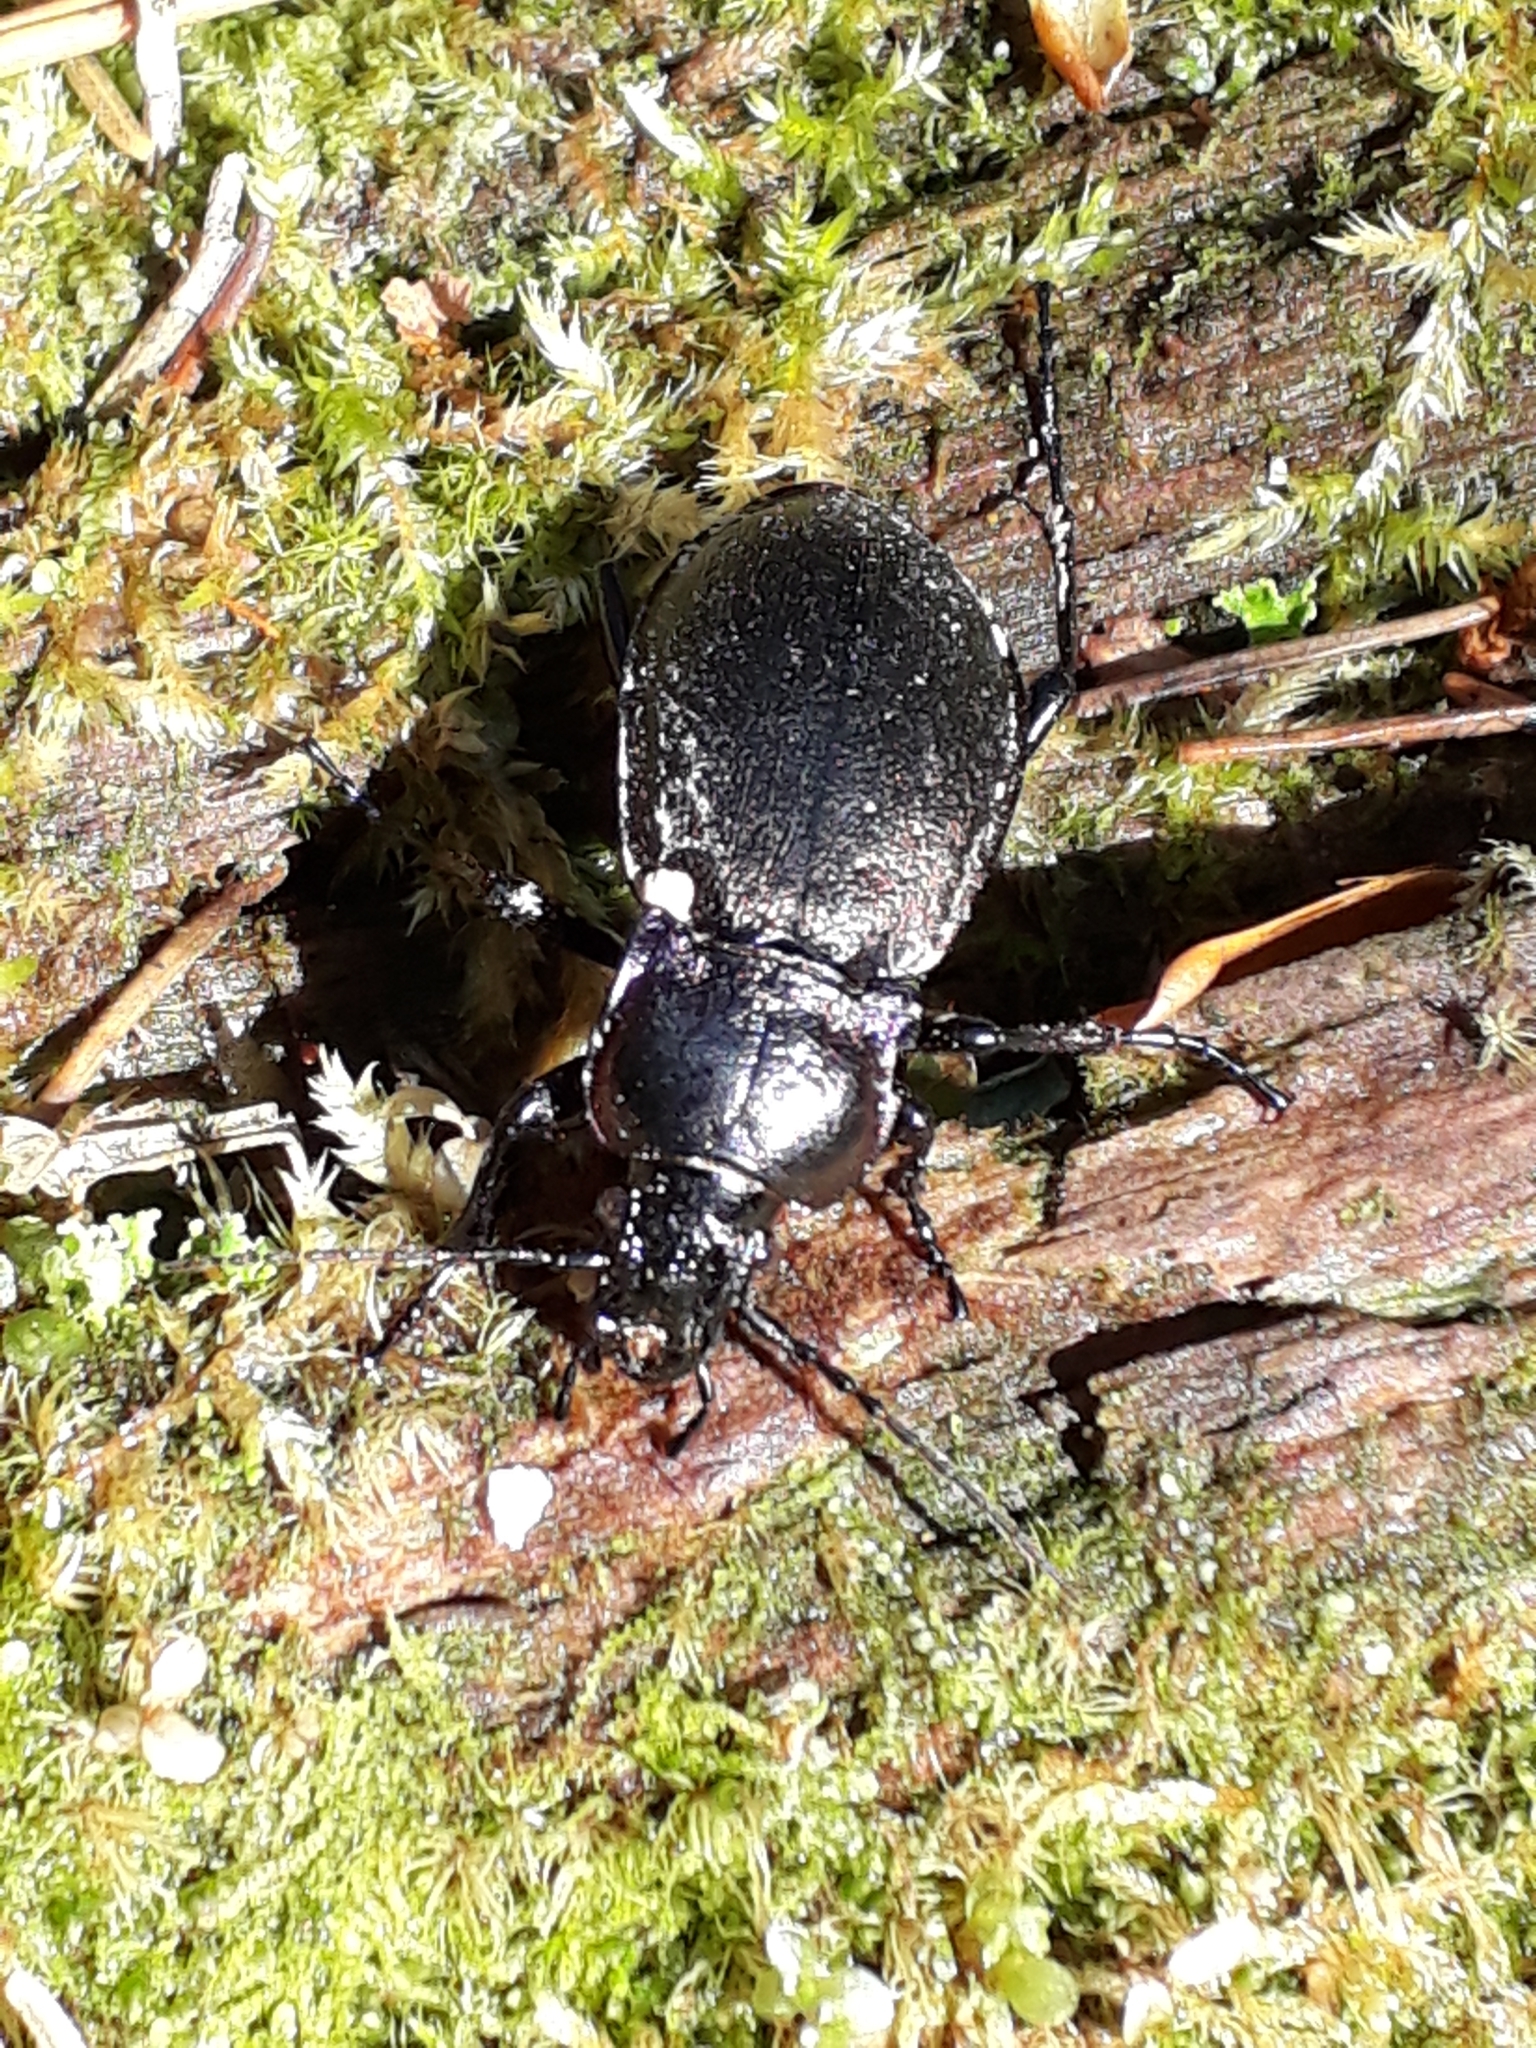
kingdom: Animalia
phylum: Arthropoda
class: Insecta
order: Coleoptera
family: Carabidae
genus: Carabus
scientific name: Carabus nemoralis
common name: European ground beetle
